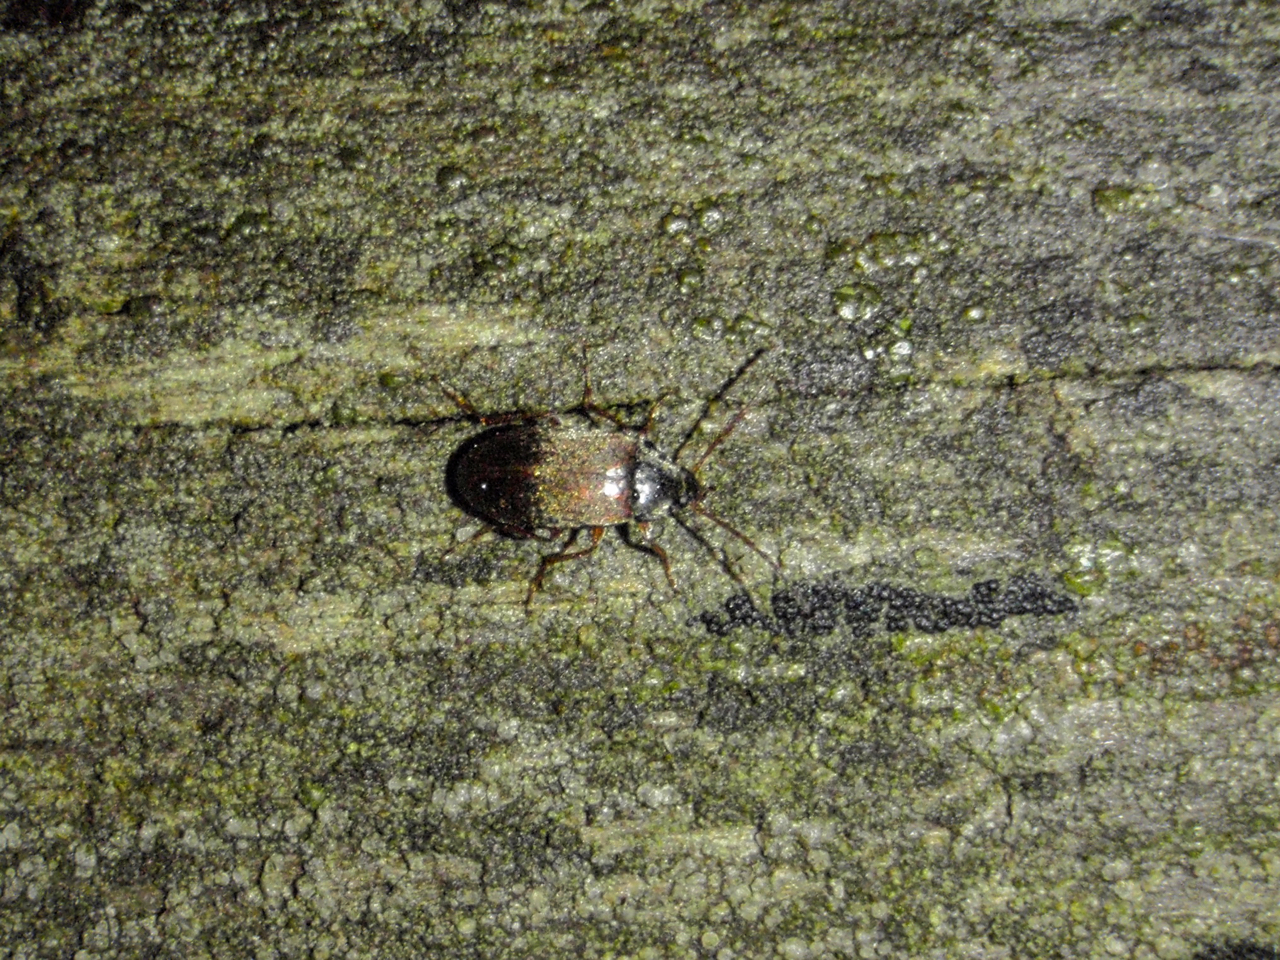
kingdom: Animalia
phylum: Arthropoda
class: Insecta
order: Coleoptera
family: Tenebrionidae
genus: Isomira
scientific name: Isomira
